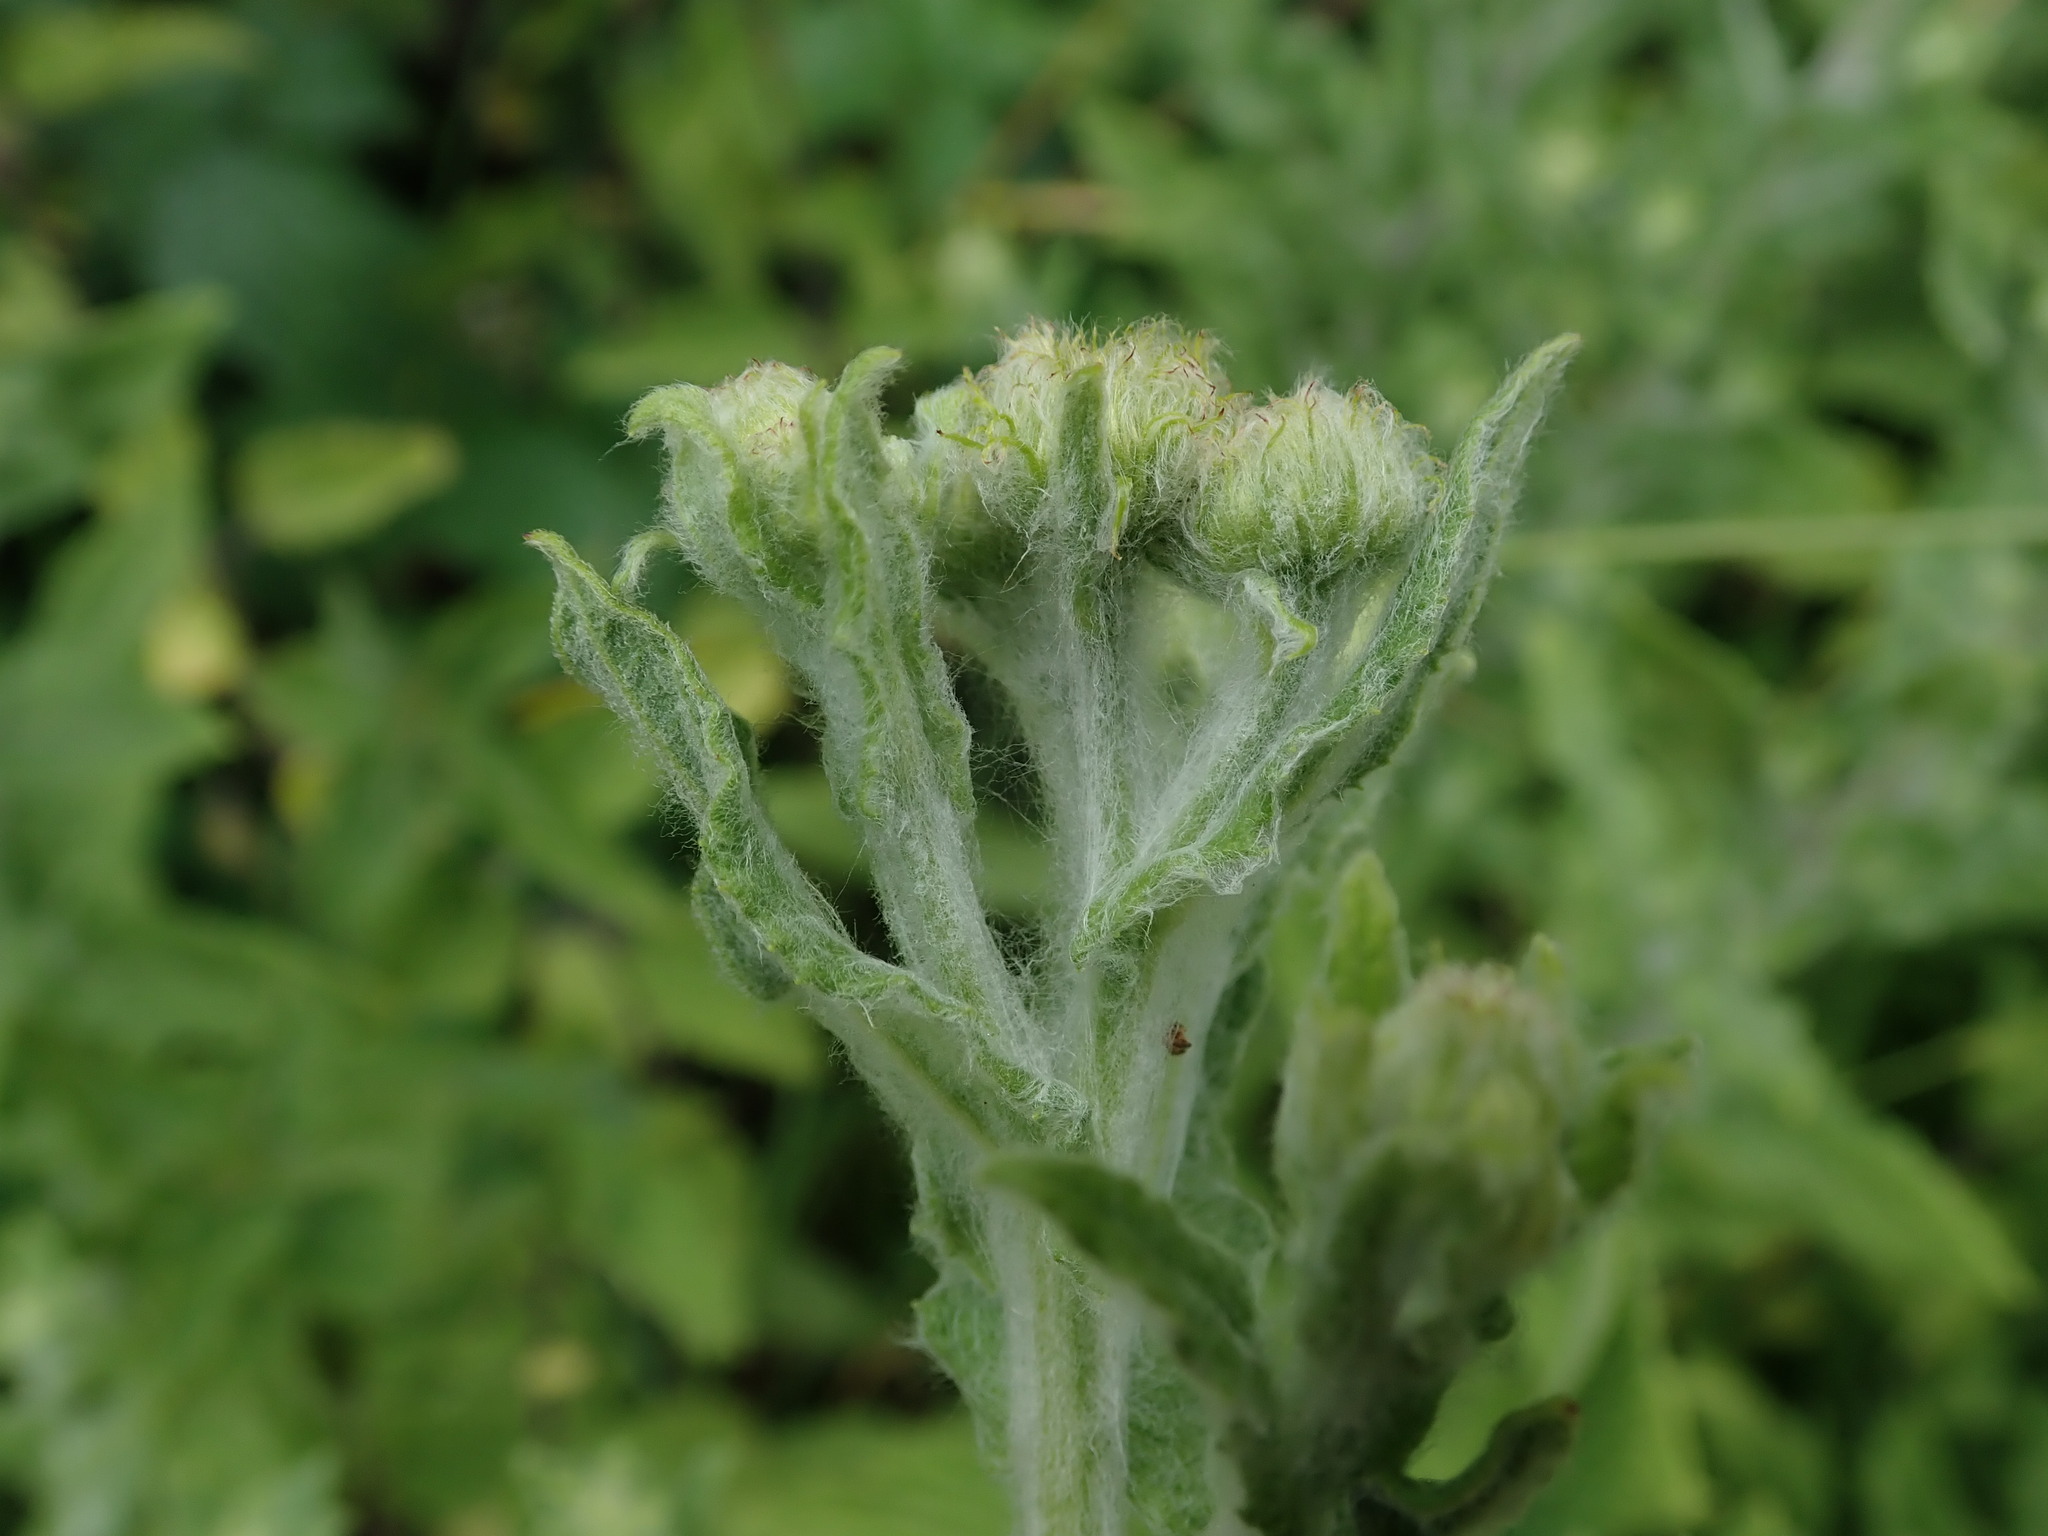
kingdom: Plantae
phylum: Tracheophyta
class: Magnoliopsida
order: Asterales
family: Asteraceae
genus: Pulicaria
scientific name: Pulicaria dysenterica
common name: Common fleabane
